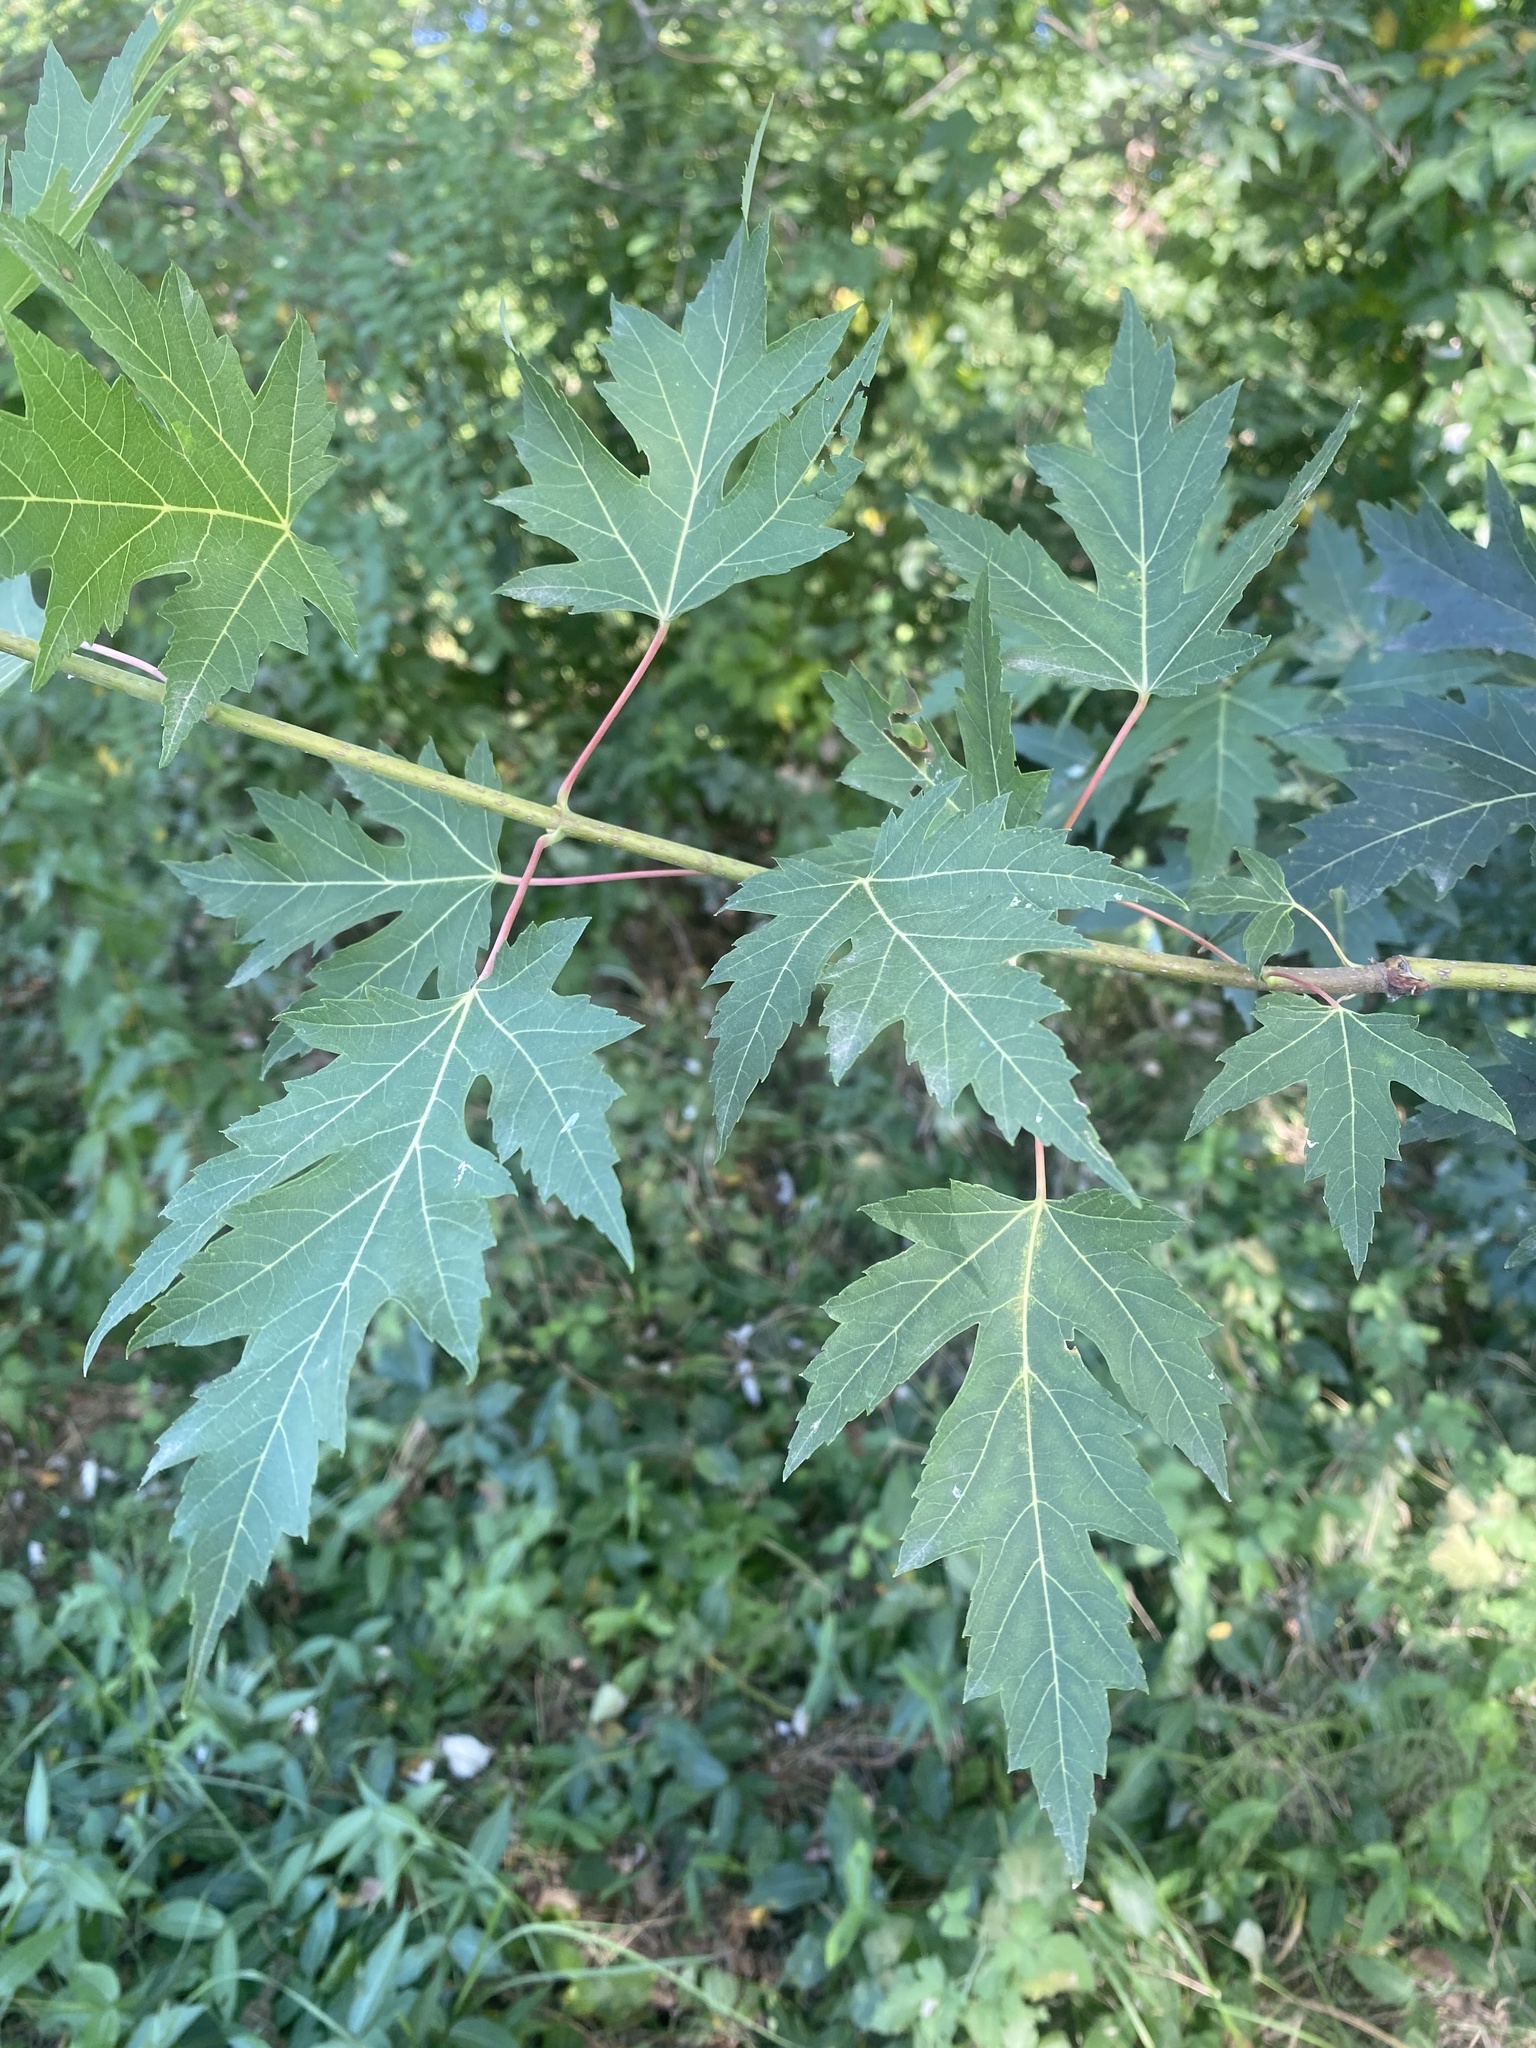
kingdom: Plantae
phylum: Tracheophyta
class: Magnoliopsida
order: Sapindales
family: Sapindaceae
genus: Acer
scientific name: Acer saccharinum
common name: Silver maple
